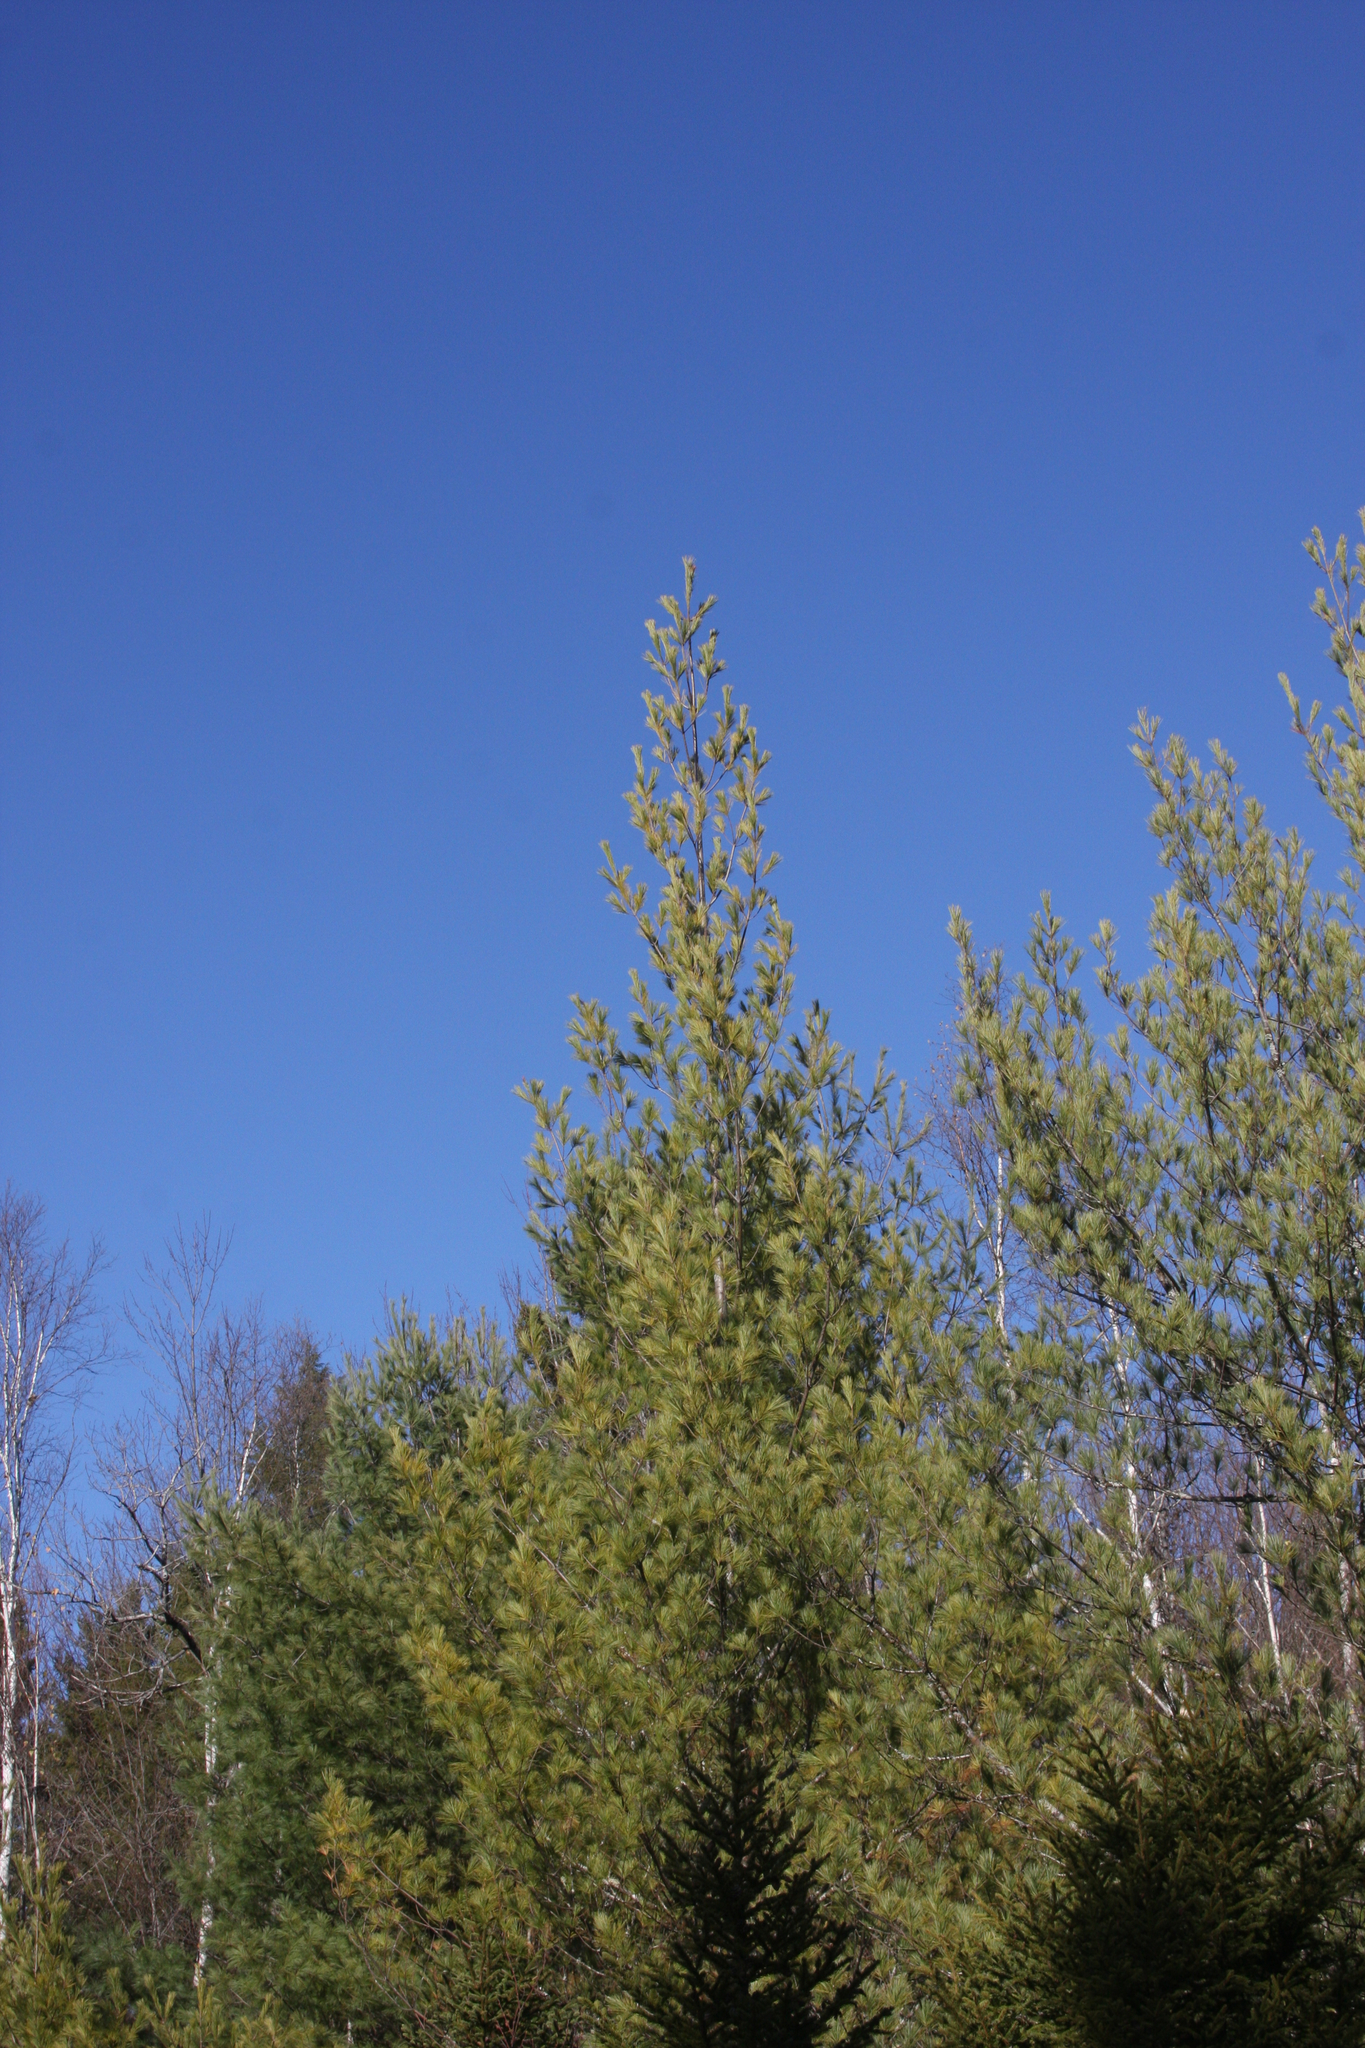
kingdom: Plantae
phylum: Tracheophyta
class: Pinopsida
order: Pinales
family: Pinaceae
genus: Pinus
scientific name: Pinus strobus
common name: Weymouth pine
